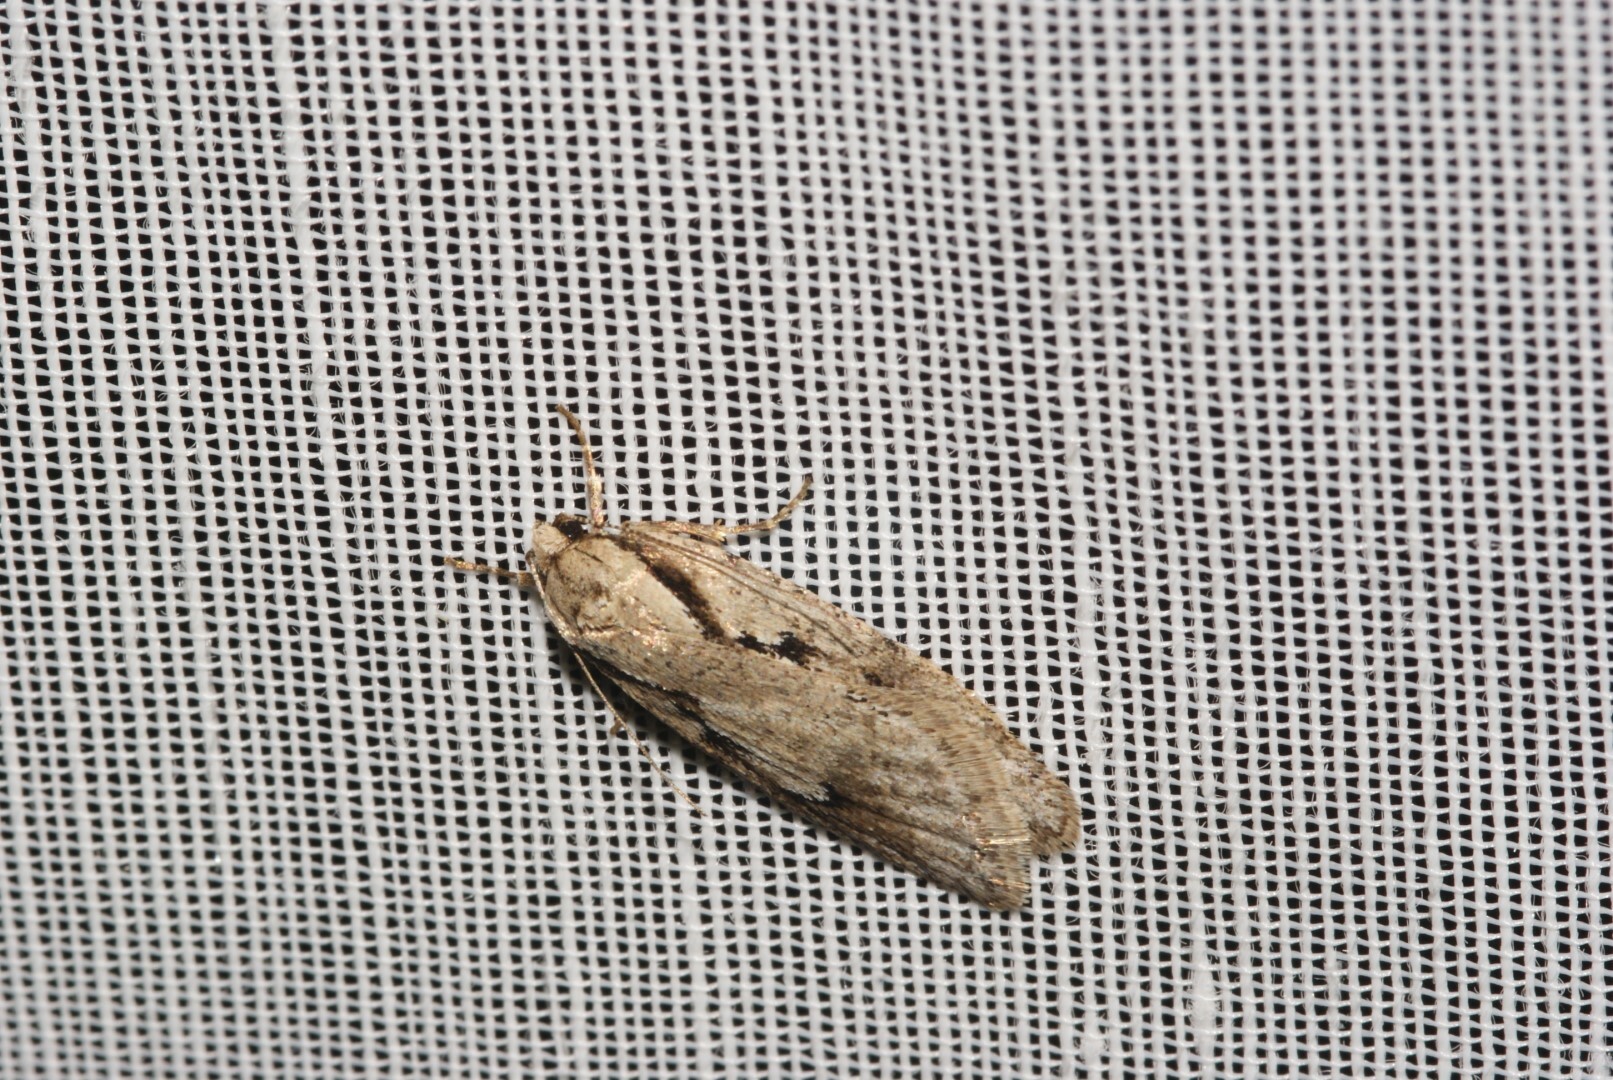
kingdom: Animalia
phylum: Arthropoda
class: Insecta
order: Lepidoptera
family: Depressariidae
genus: Semioscopis
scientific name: Semioscopis avellanella
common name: Early flat-body
